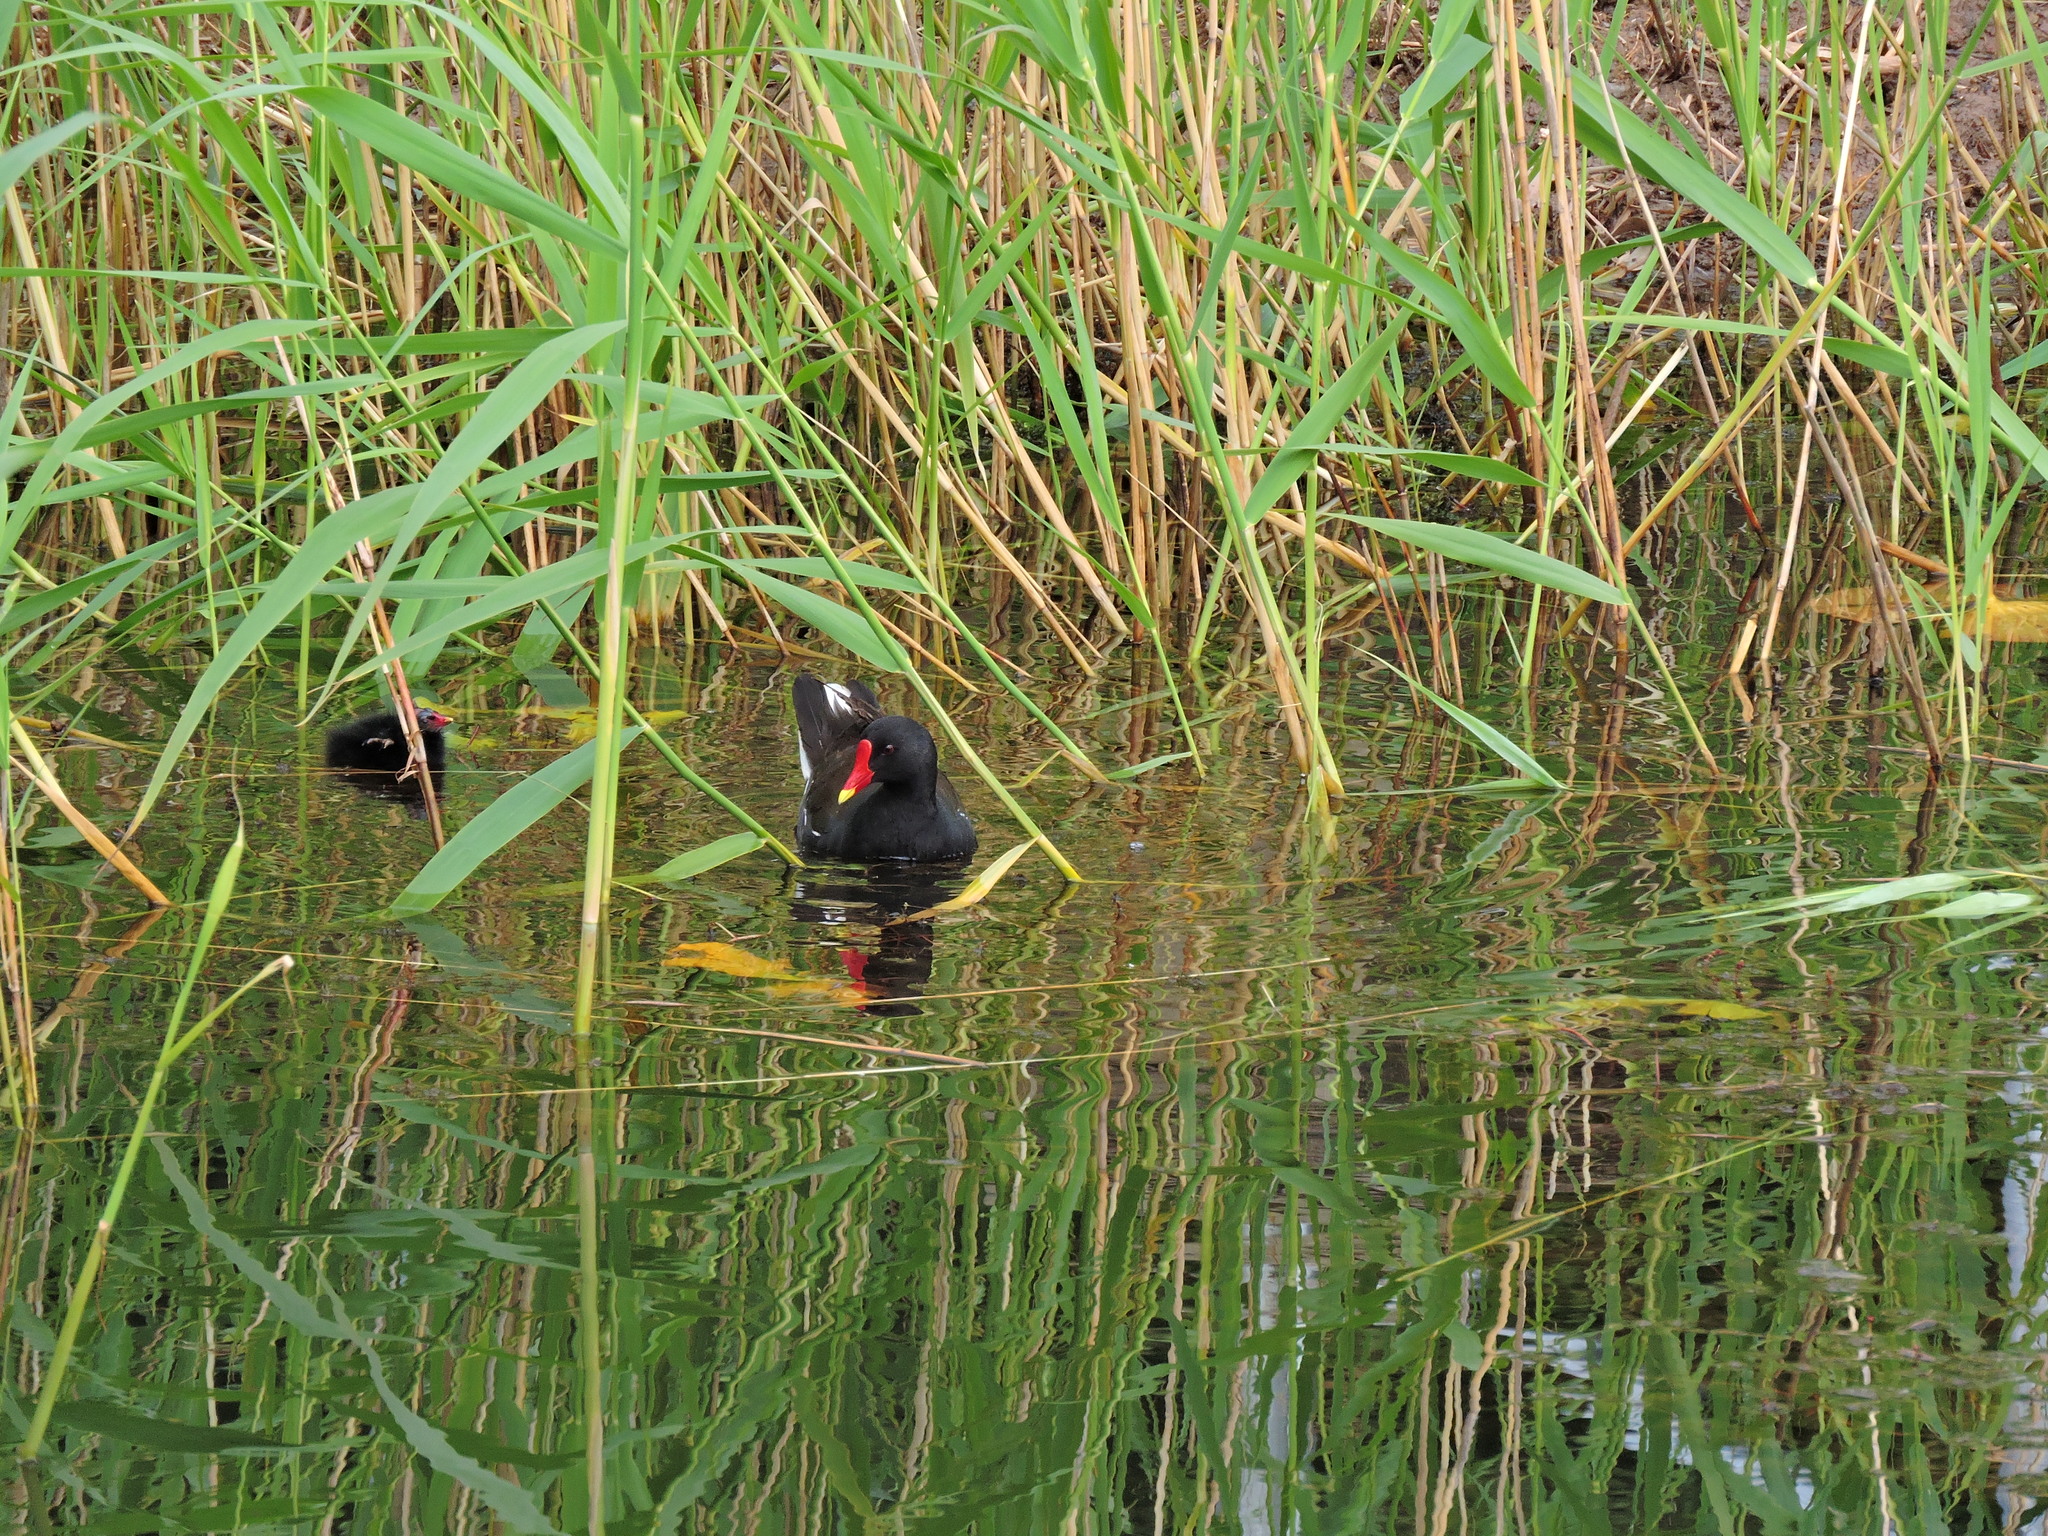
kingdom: Animalia
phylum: Chordata
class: Aves
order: Gruiformes
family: Rallidae
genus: Gallinula
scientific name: Gallinula chloropus
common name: Common moorhen
